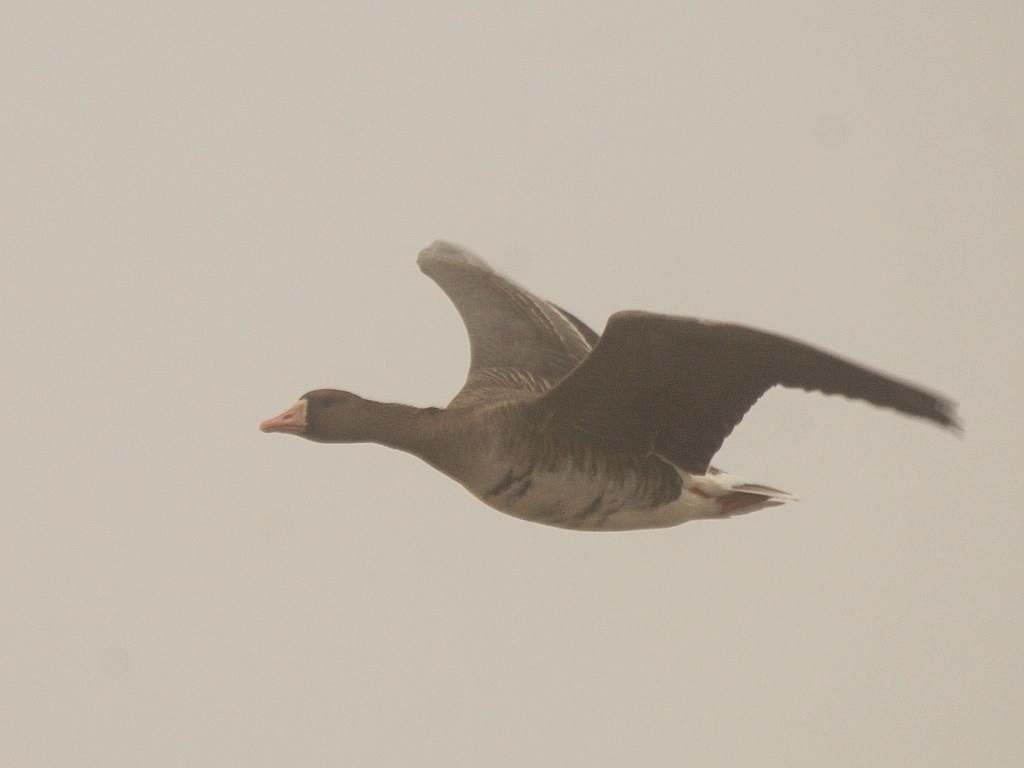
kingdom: Animalia
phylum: Chordata
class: Aves
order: Anseriformes
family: Anatidae
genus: Anser
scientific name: Anser albifrons
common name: Greater white-fronted goose
